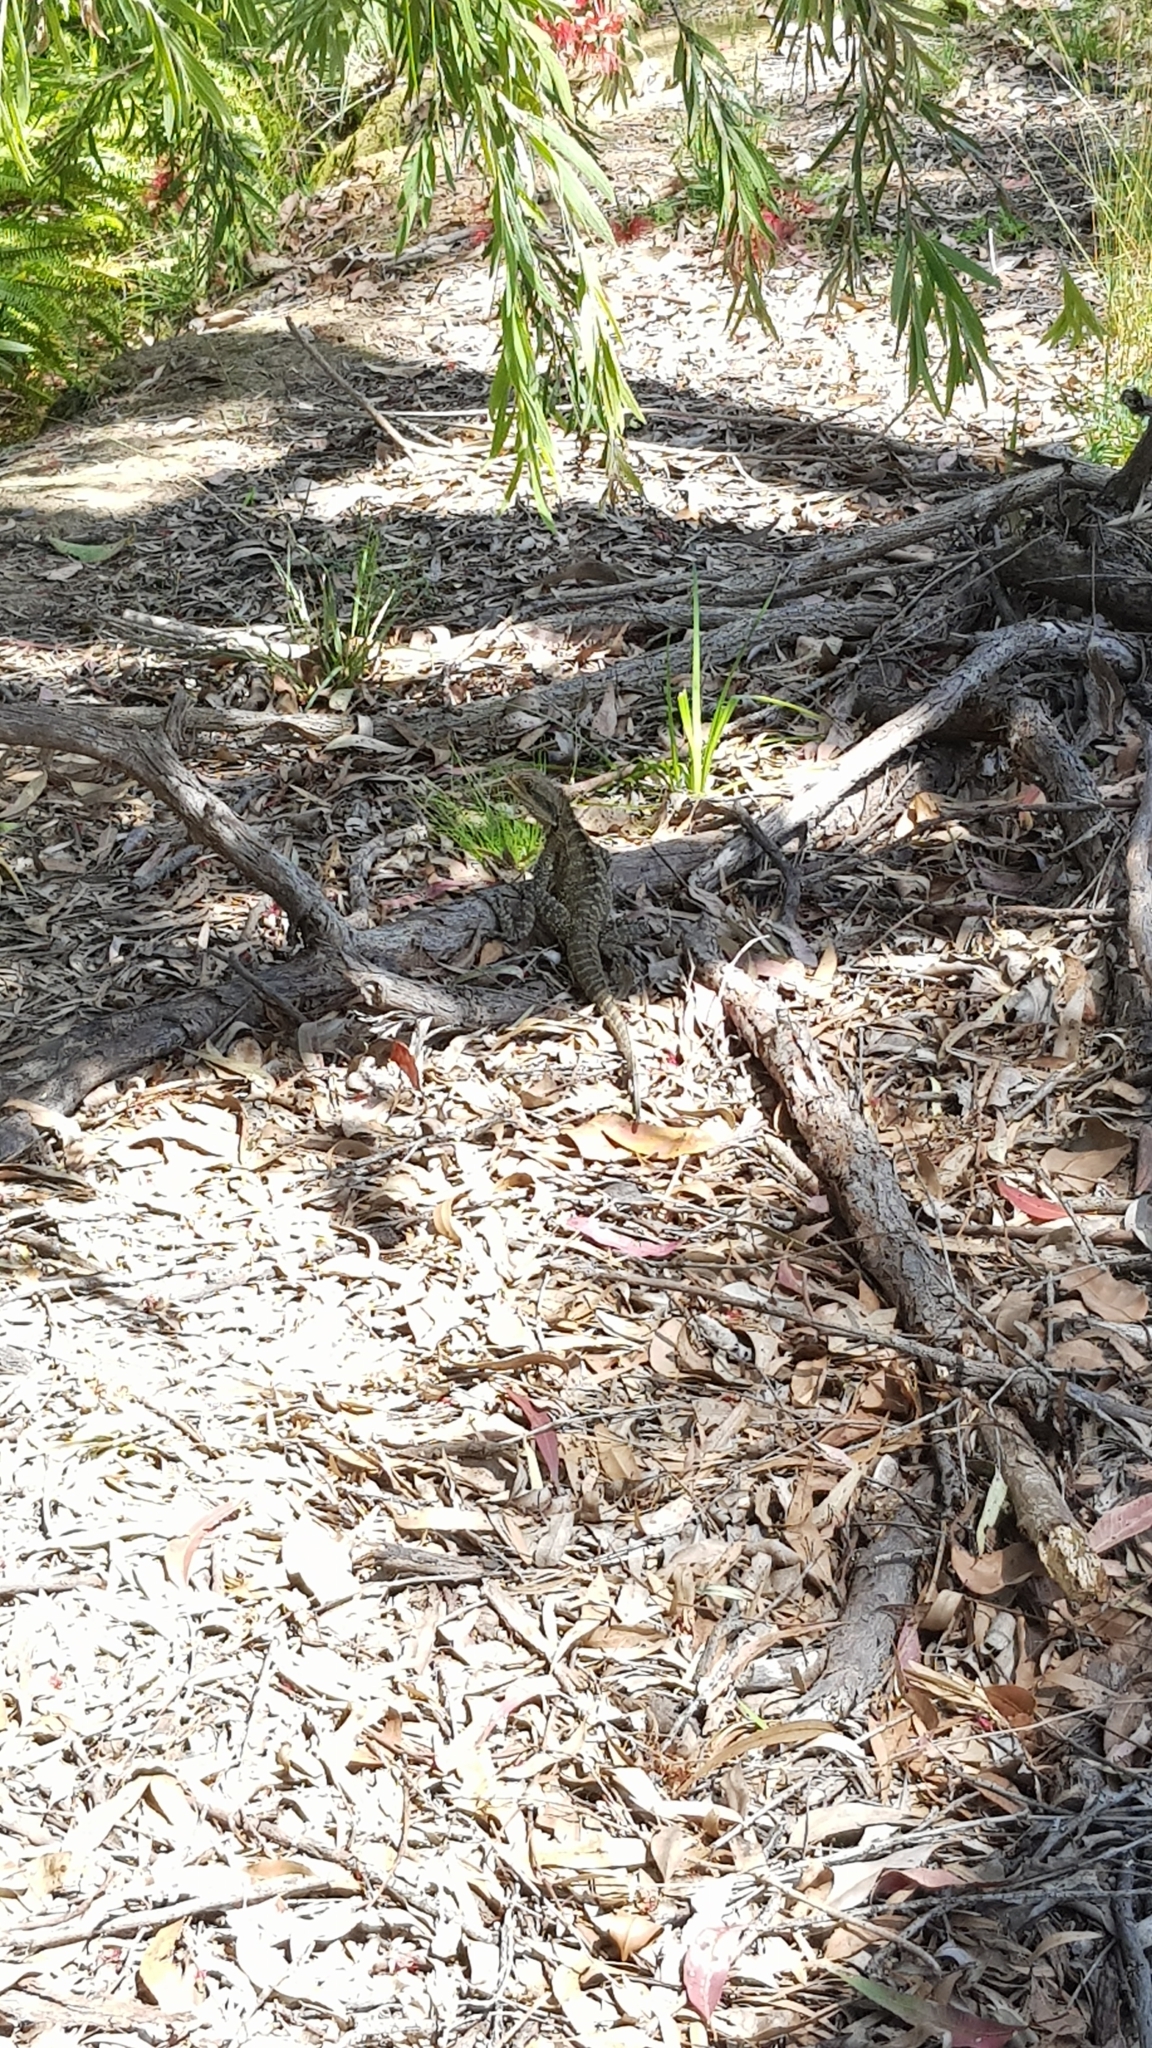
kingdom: Animalia
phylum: Chordata
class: Squamata
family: Agamidae
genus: Intellagama
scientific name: Intellagama lesueurii
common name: Eastern water dragon
